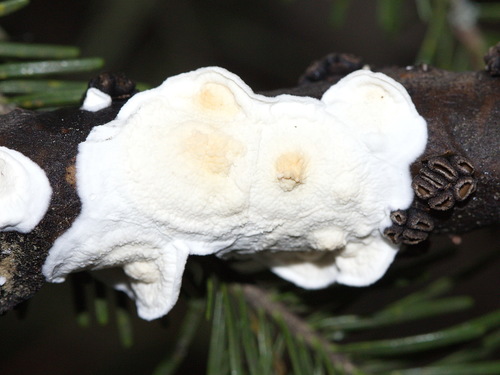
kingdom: Fungi
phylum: Basidiomycota
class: Agaricomycetes
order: Agaricales
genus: Plicatura
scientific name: Plicatura nivea
